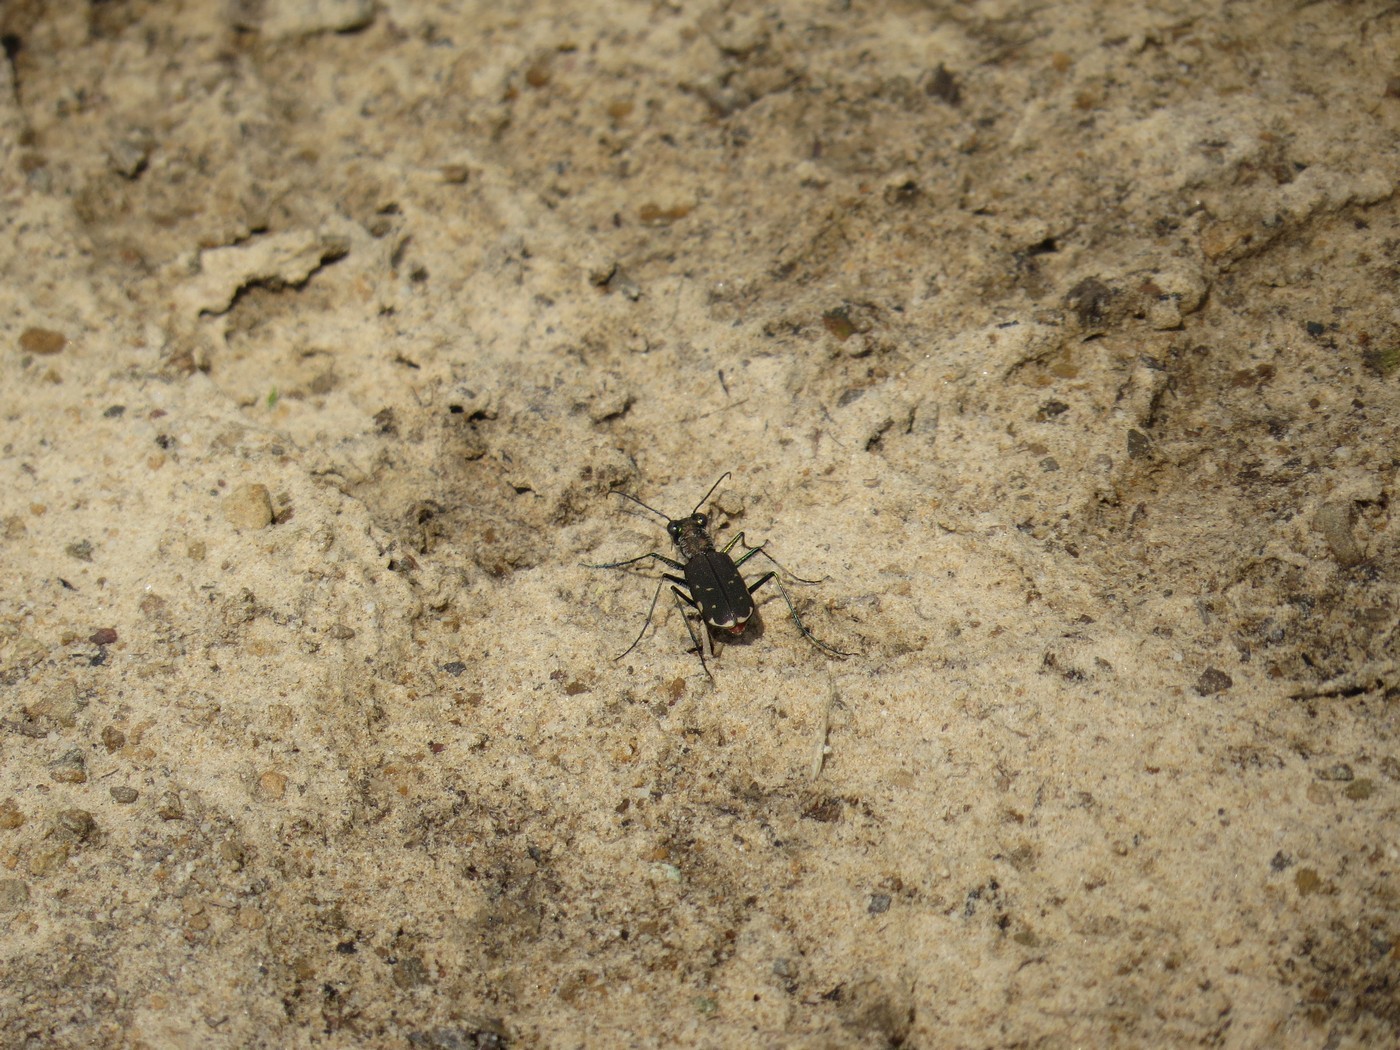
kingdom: Animalia
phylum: Arthropoda
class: Insecta
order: Coleoptera
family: Carabidae
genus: Cicindela
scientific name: Cicindela rufiventris
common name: Eastern red-bellied tiger beetle
